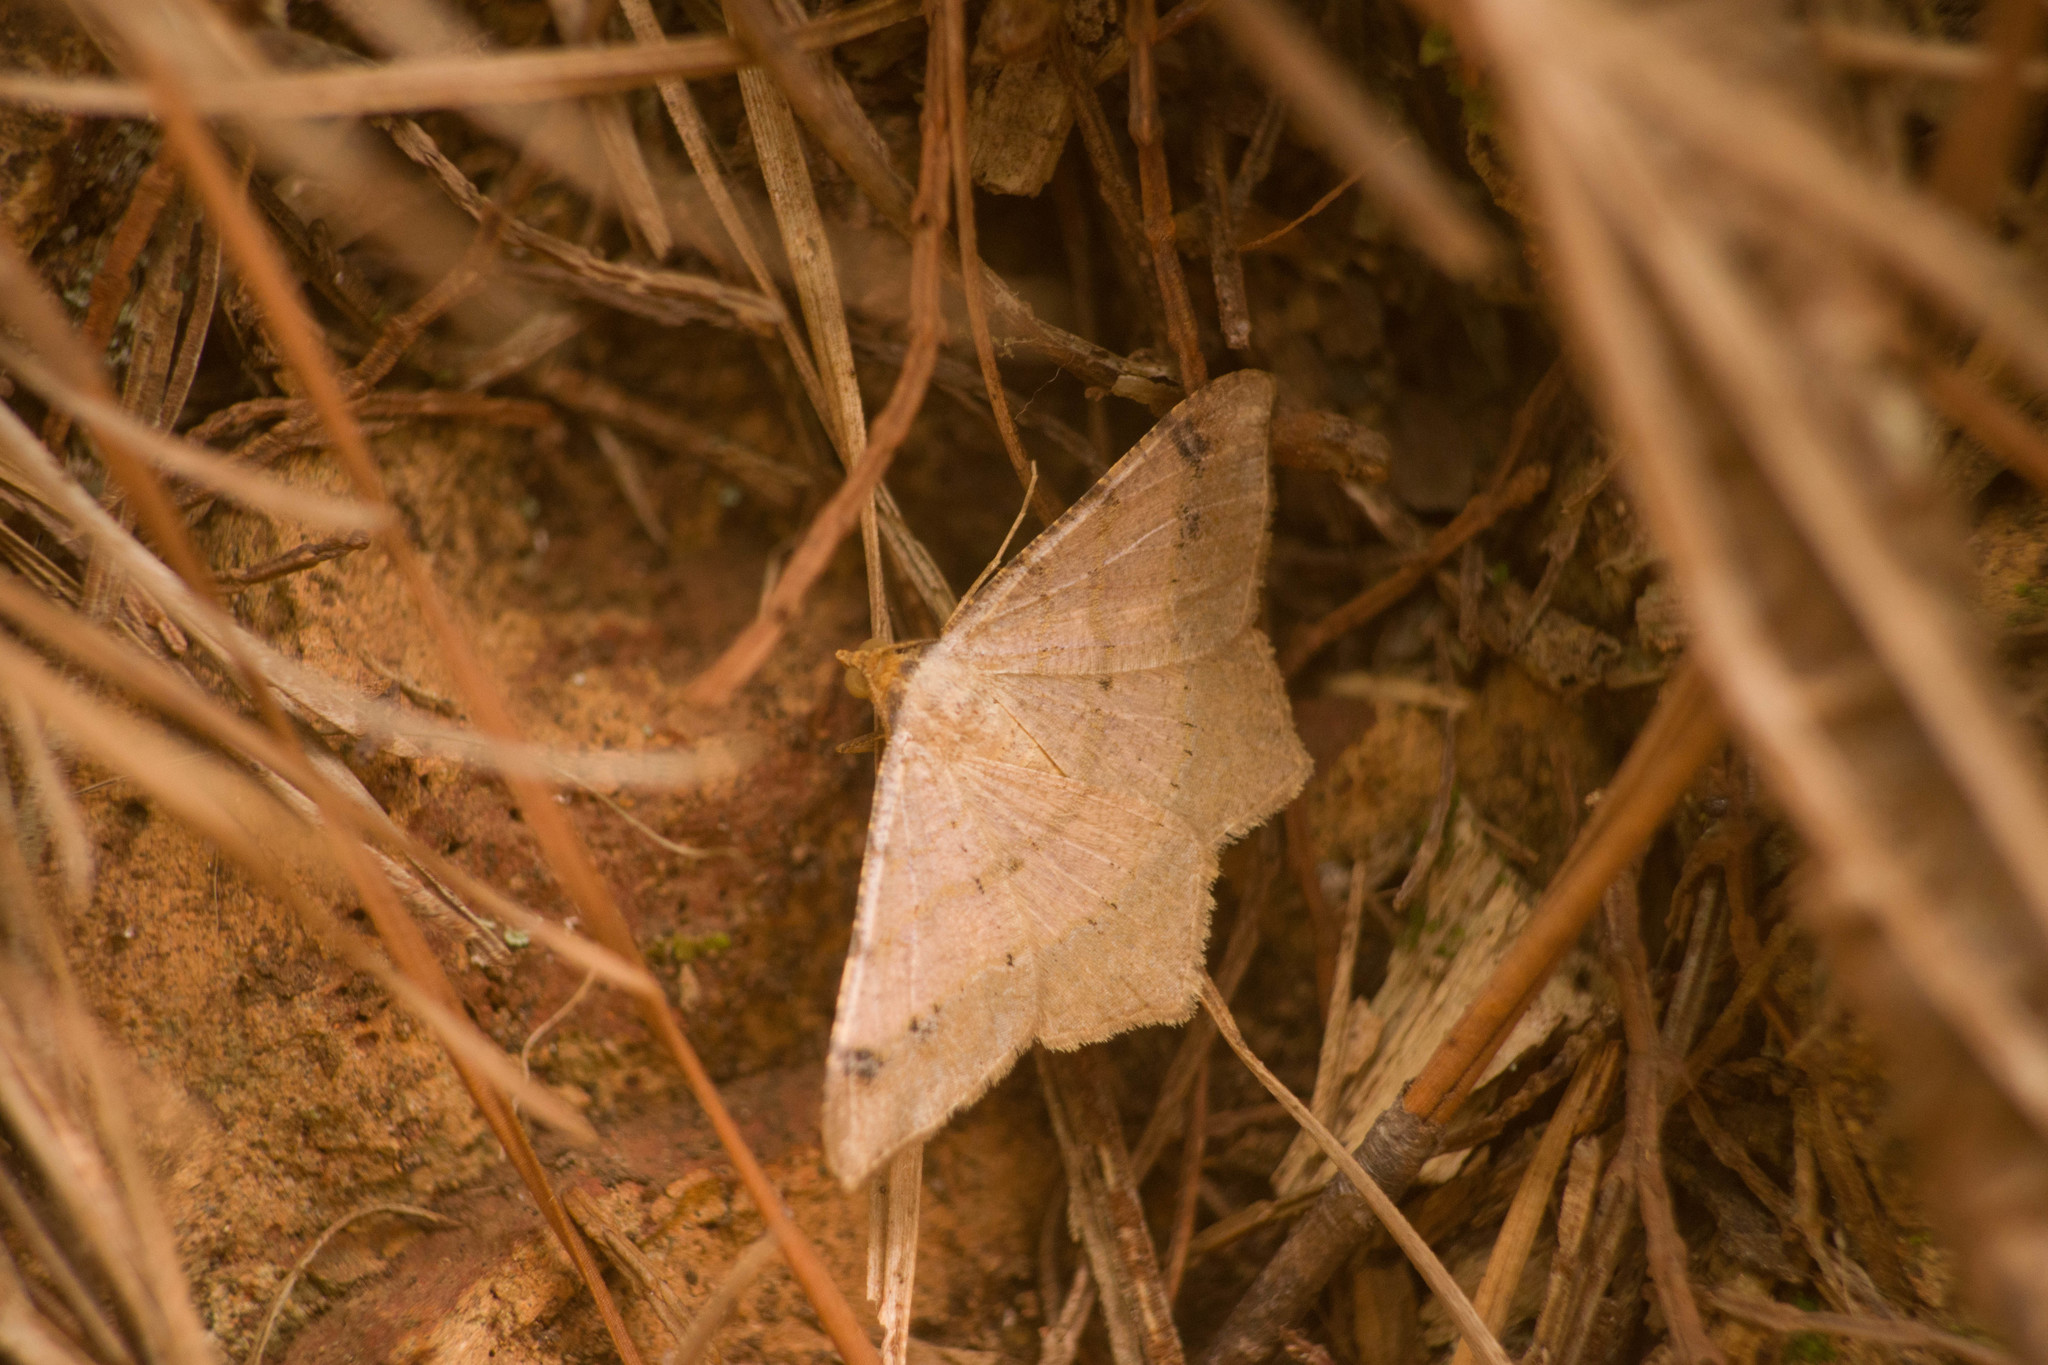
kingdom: Animalia
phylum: Arthropoda
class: Insecta
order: Lepidoptera
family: Geometridae
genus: Macaria
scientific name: Macaria abydata
